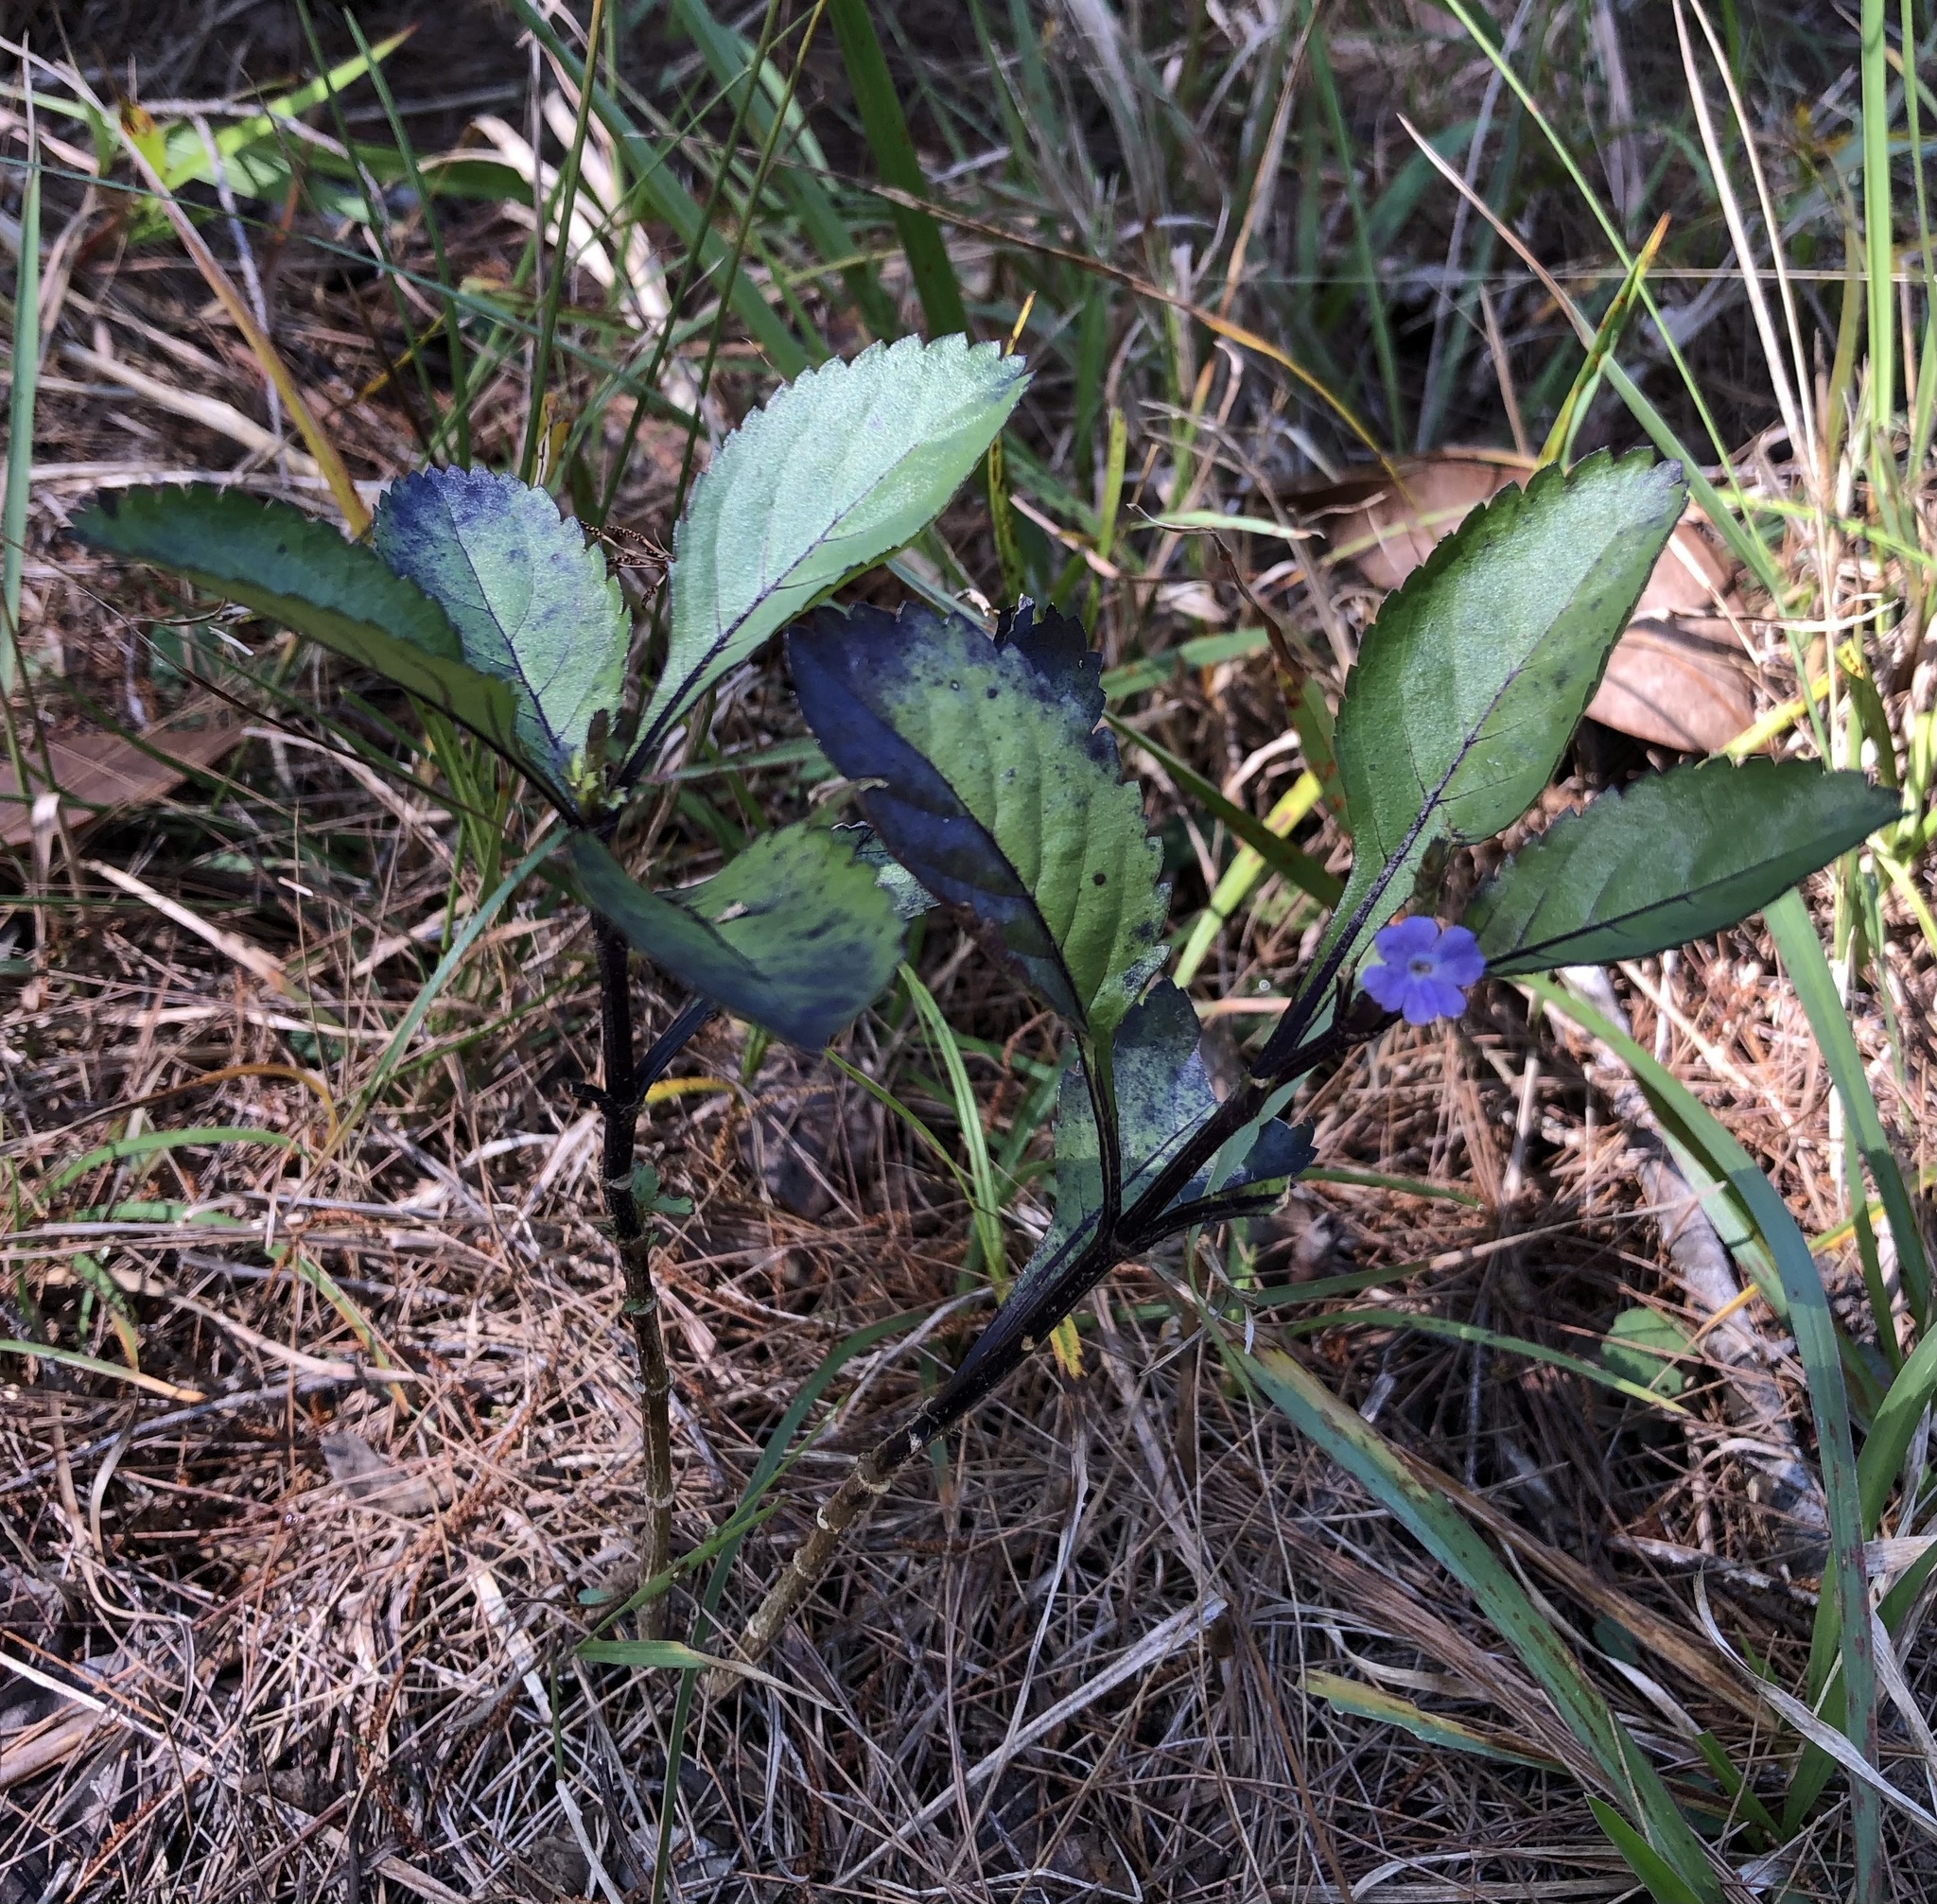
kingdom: Plantae
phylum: Tracheophyta
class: Magnoliopsida
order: Lamiales
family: Verbenaceae
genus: Stachytarpheta
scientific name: Stachytarpheta jamaicensis
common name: Light-blue snakeweed
